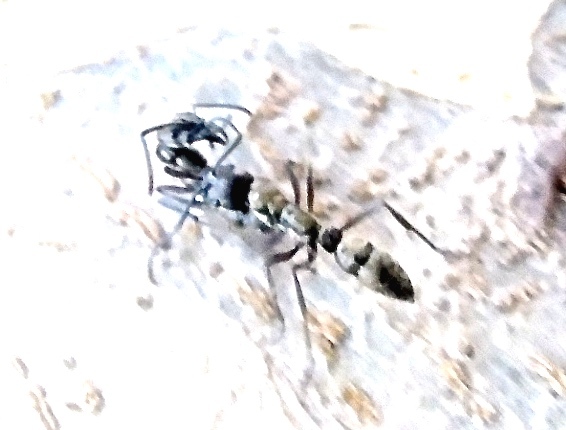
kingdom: Animalia
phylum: Arthropoda
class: Insecta
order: Hymenoptera
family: Formicidae
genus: Pachycondyla
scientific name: Pachycondyla villosa
